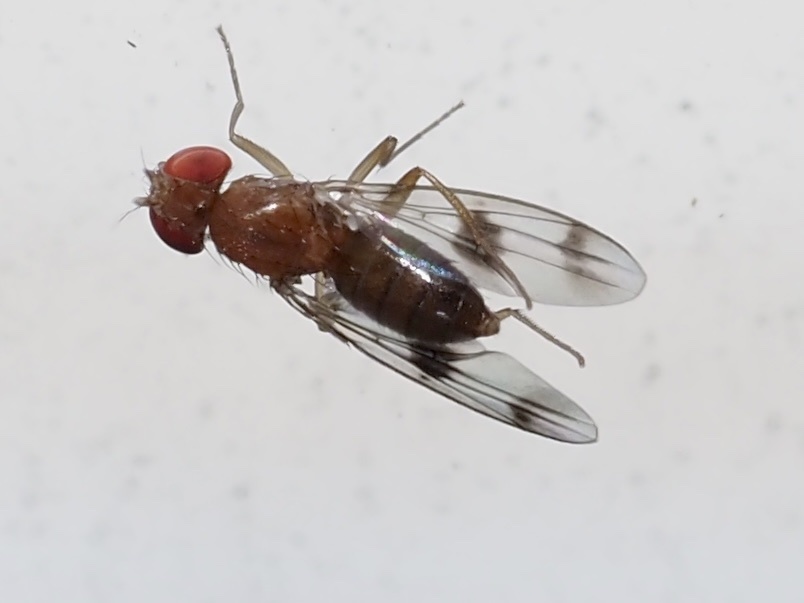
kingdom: Animalia
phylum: Arthropoda
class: Insecta
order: Diptera
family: Drosophilidae
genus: Chymomyza
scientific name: Chymomyza amoena
